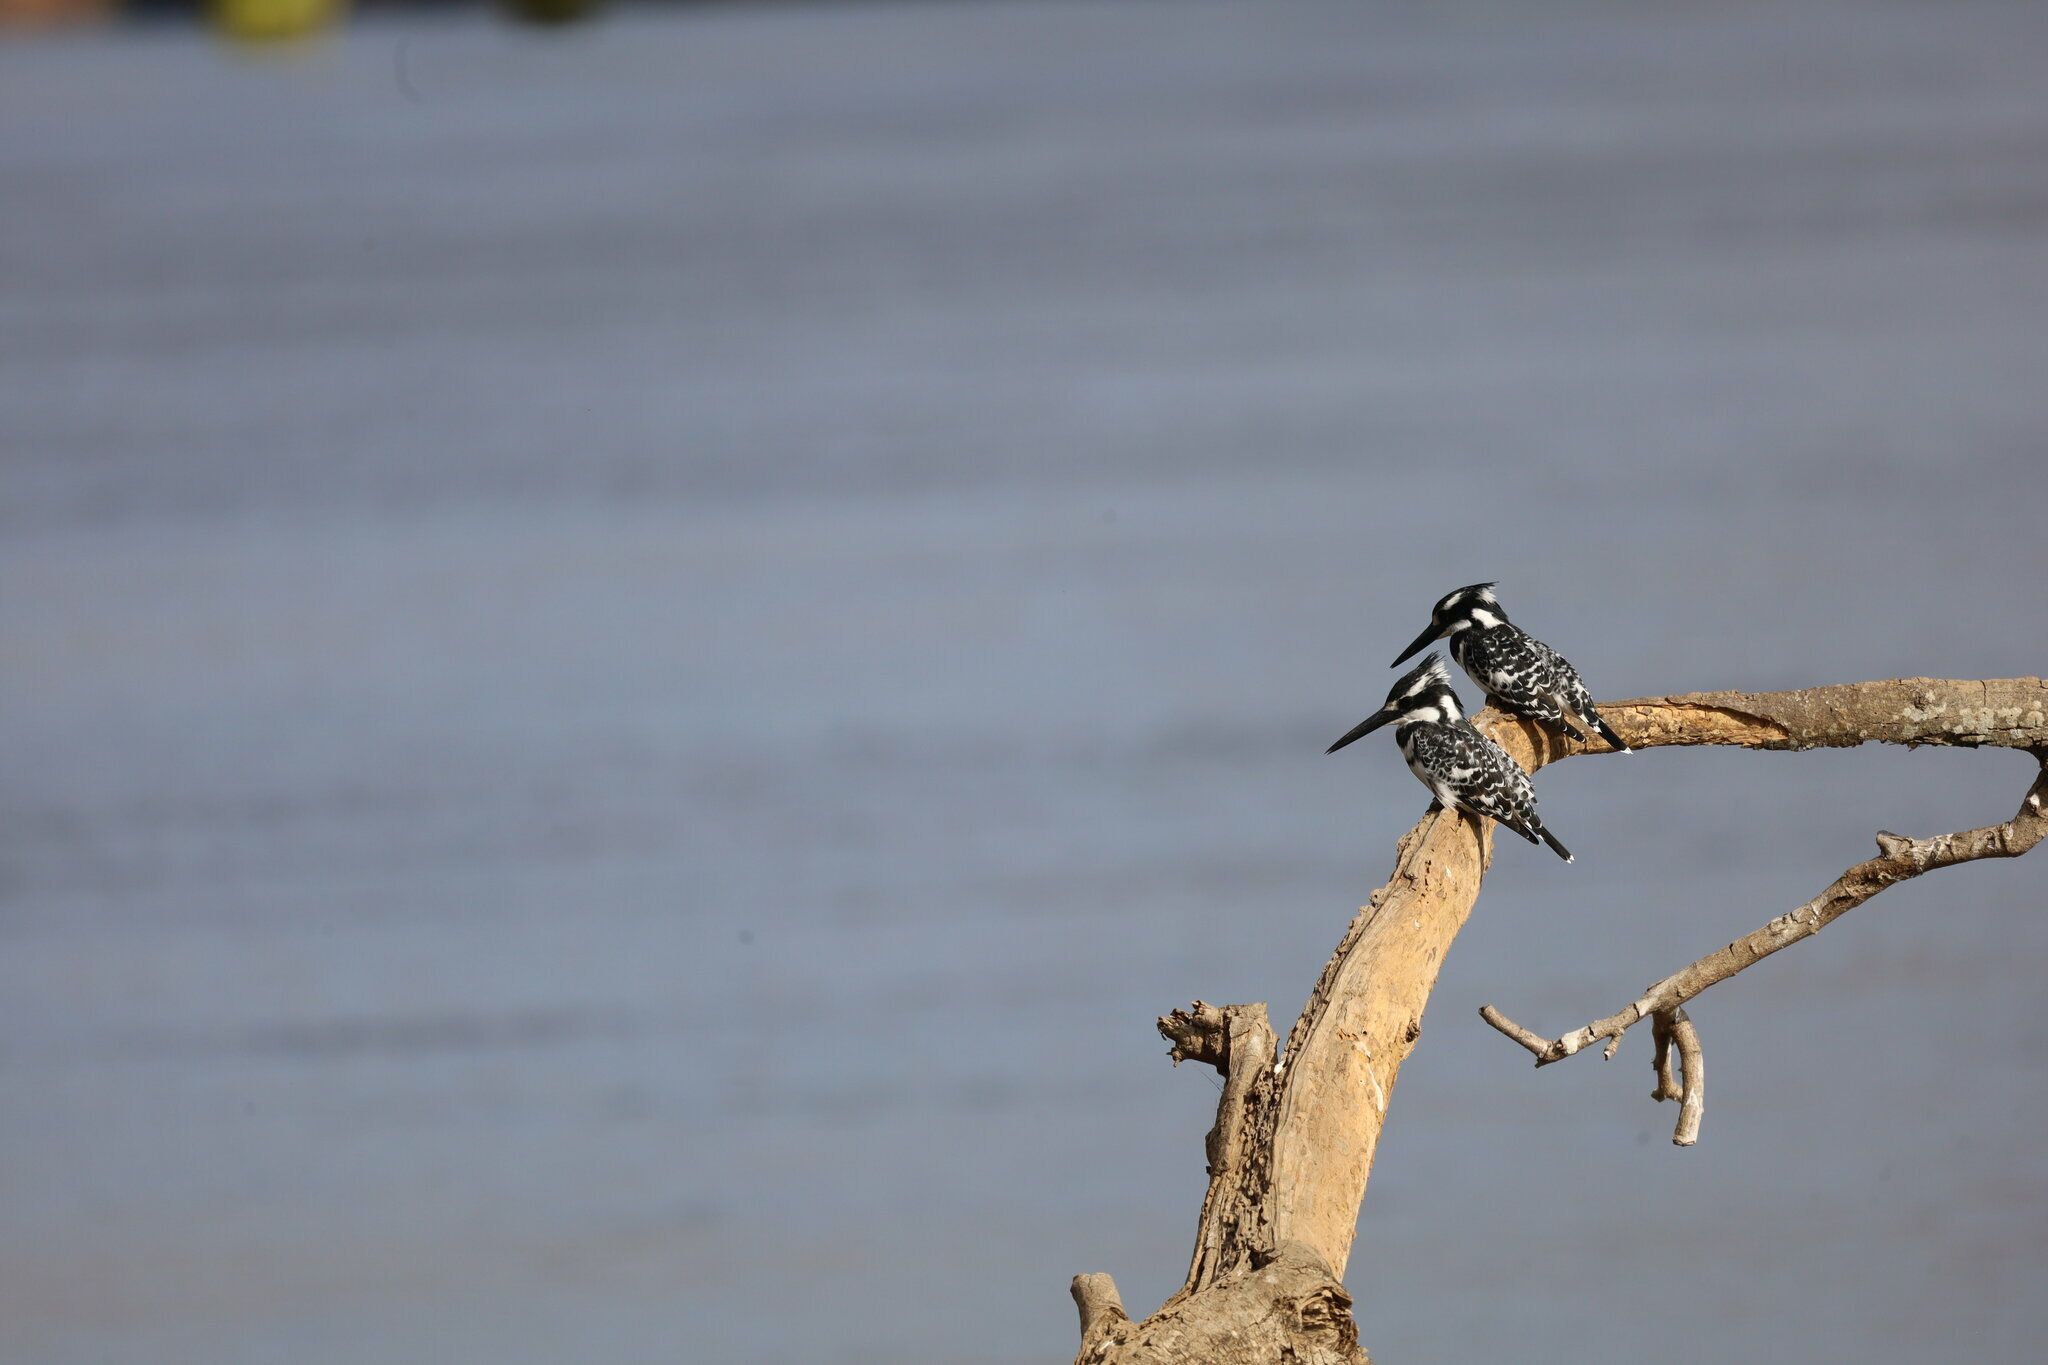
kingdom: Animalia
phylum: Chordata
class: Aves
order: Coraciiformes
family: Alcedinidae
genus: Ceryle
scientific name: Ceryle rudis
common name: Pied kingfisher
